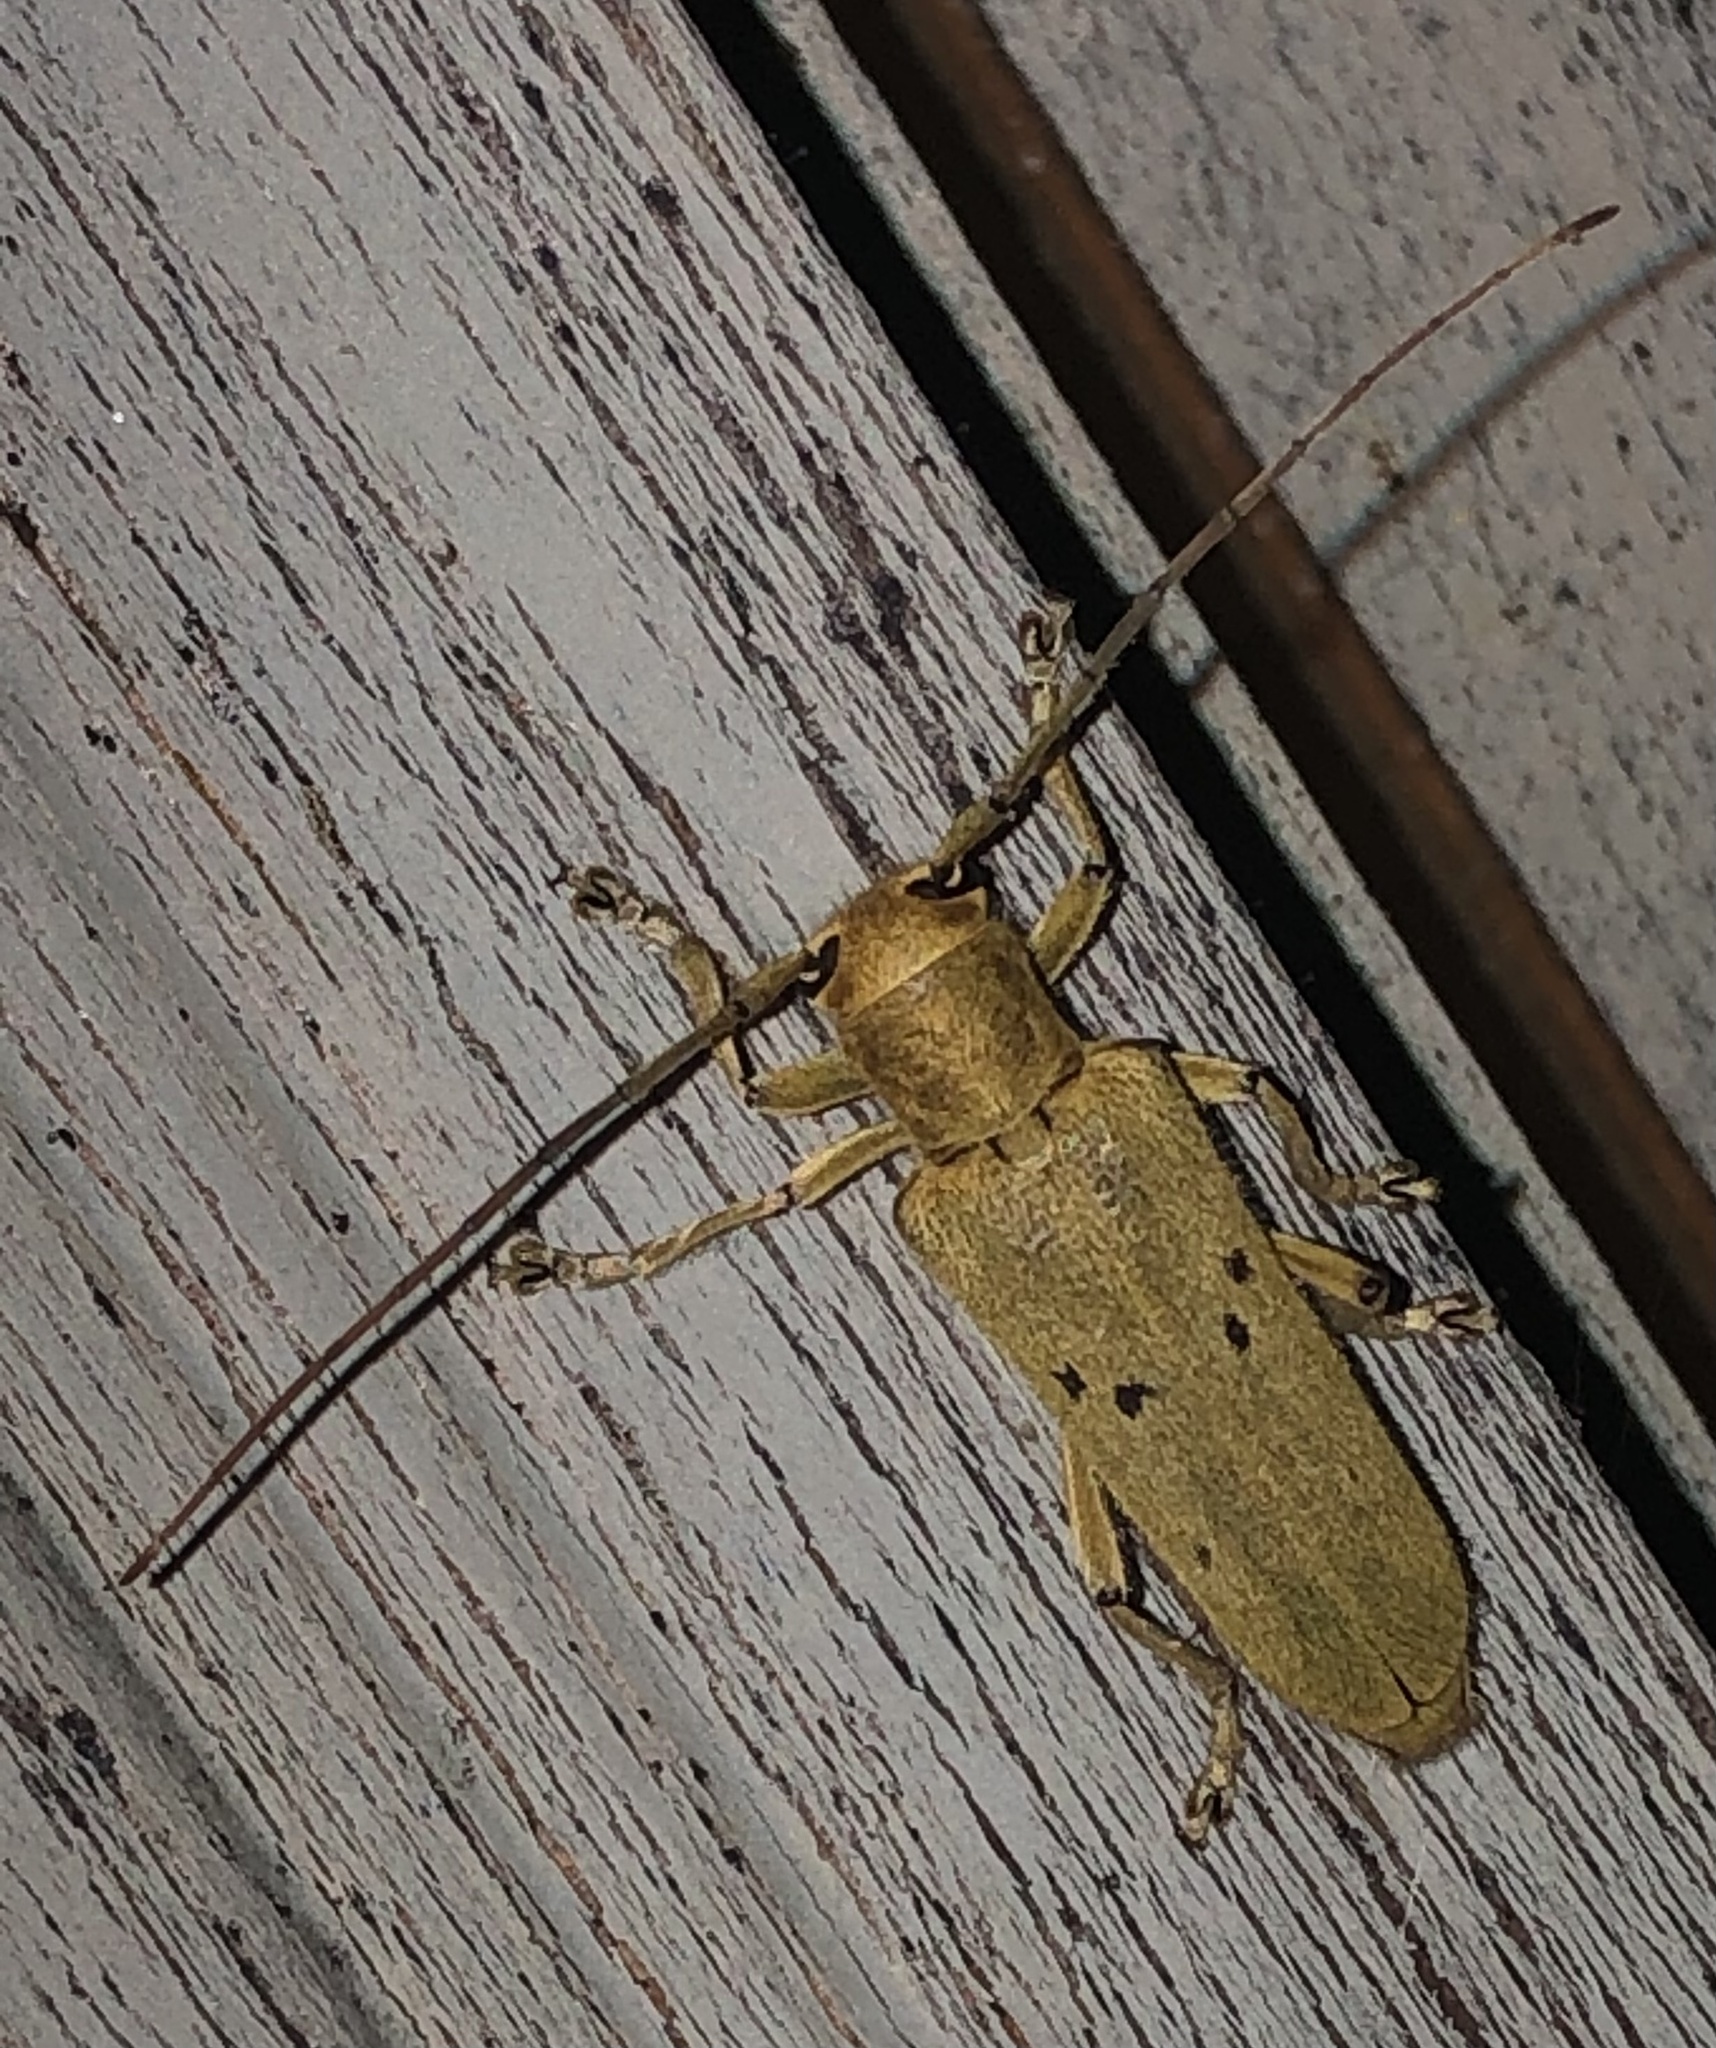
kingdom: Animalia
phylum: Arthropoda
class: Insecta
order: Coleoptera
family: Cerambycidae
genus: Saperda
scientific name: Saperda vestita
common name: Linden borer
